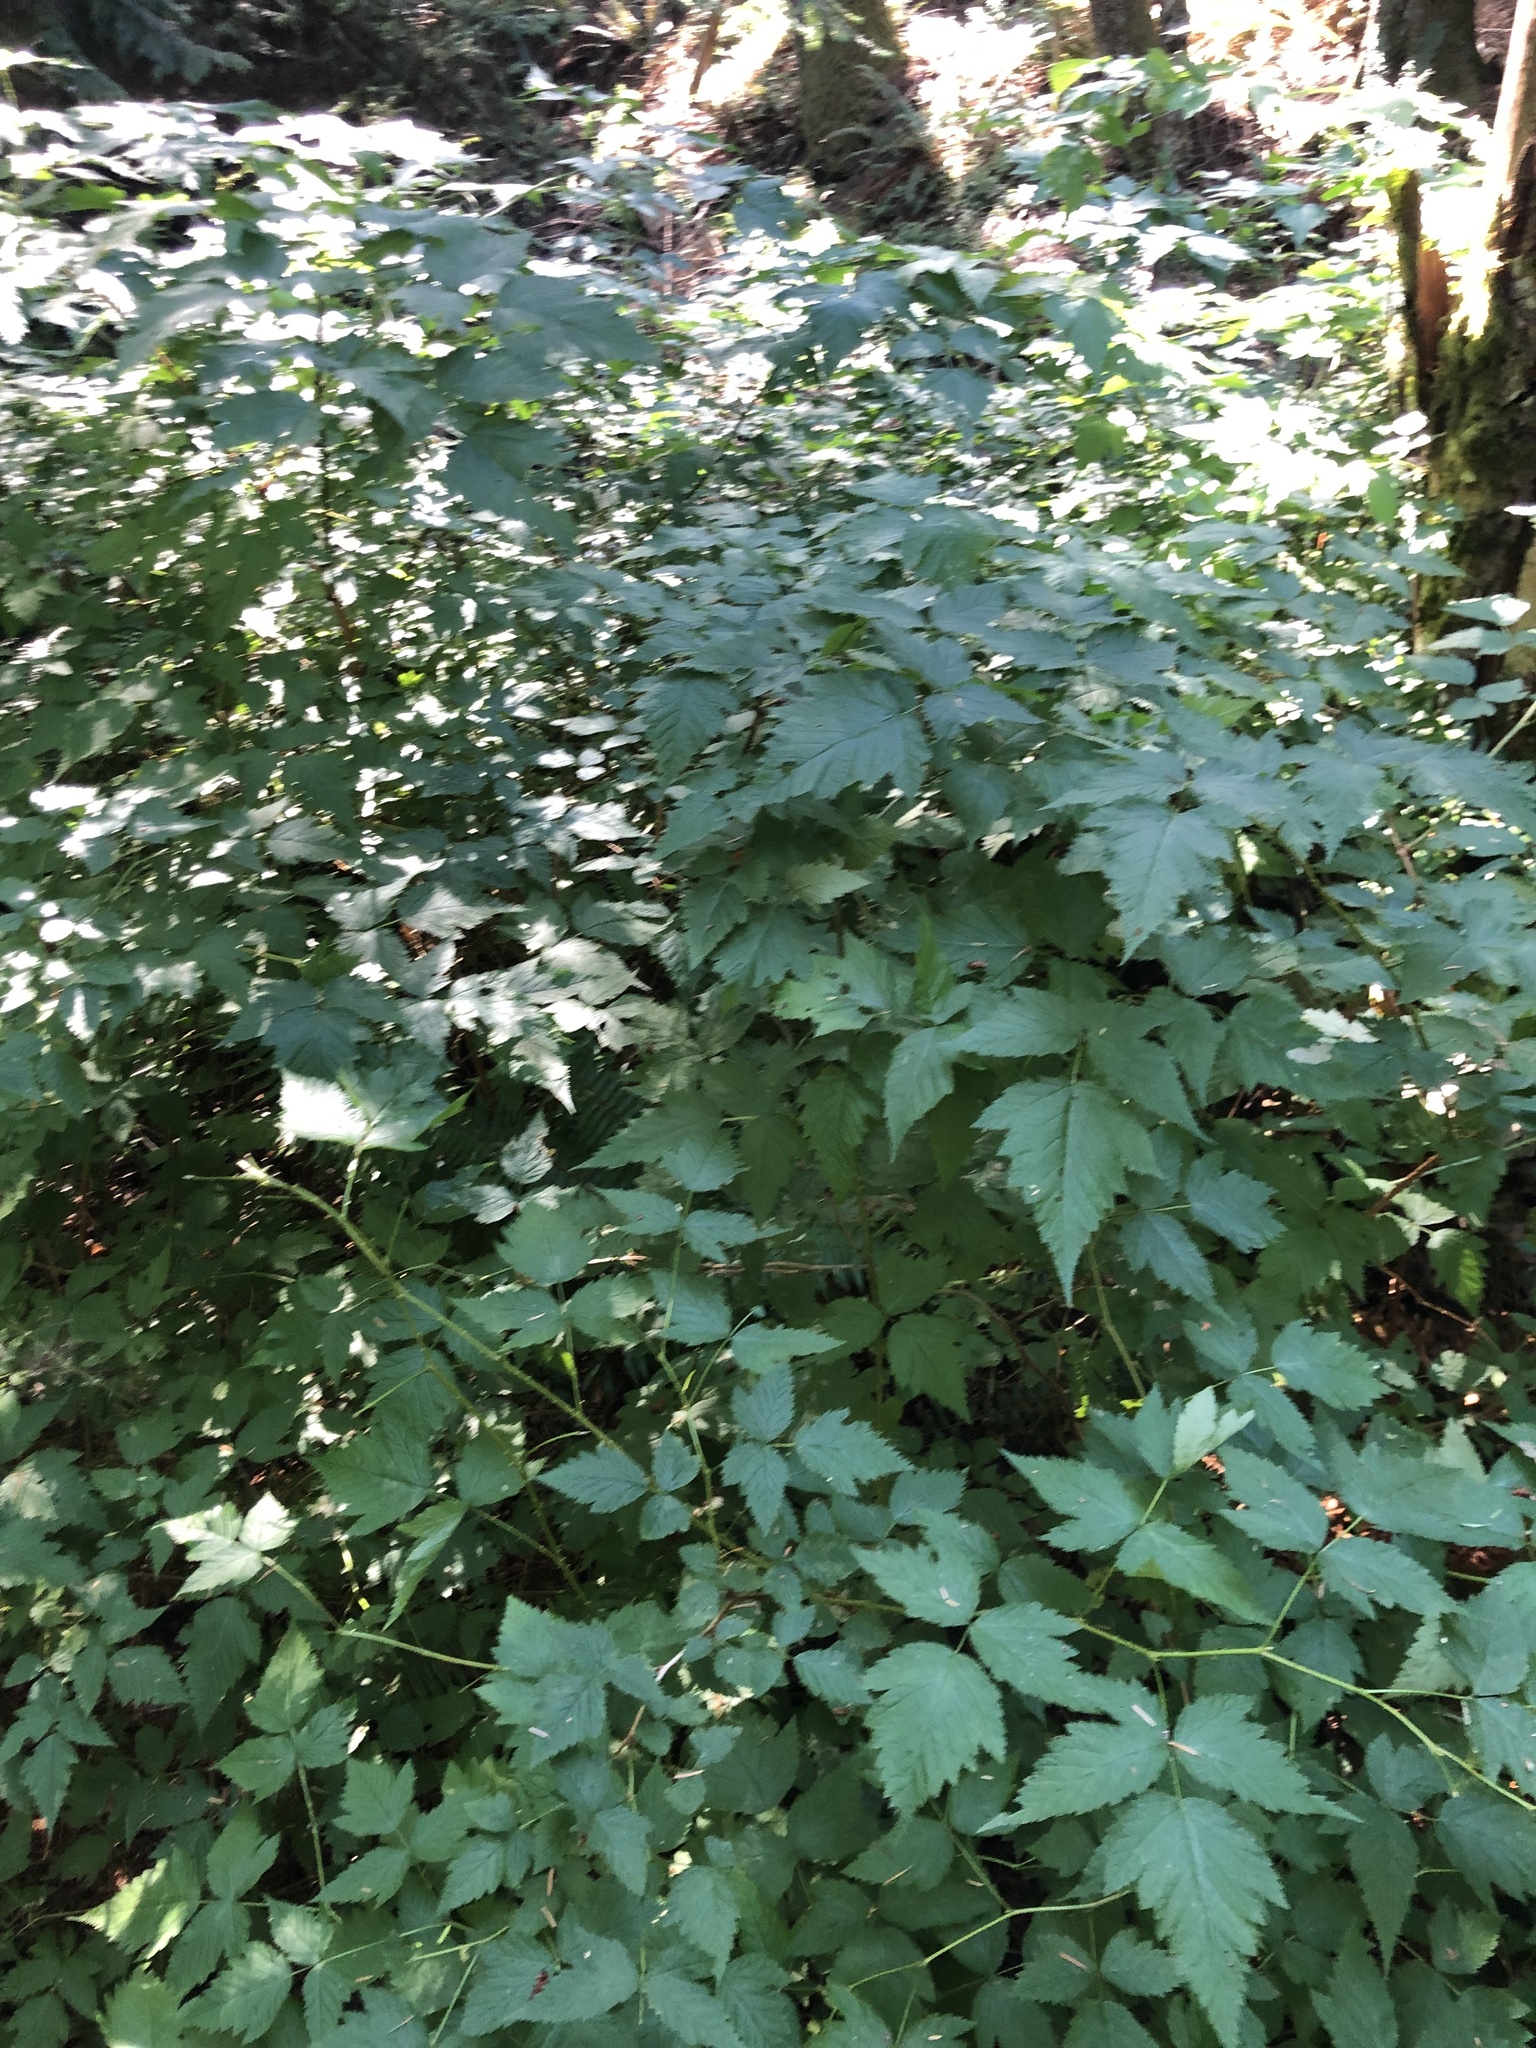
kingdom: Plantae
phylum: Tracheophyta
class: Magnoliopsida
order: Rosales
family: Rosaceae
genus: Rubus
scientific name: Rubus spectabilis
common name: Salmonberry
